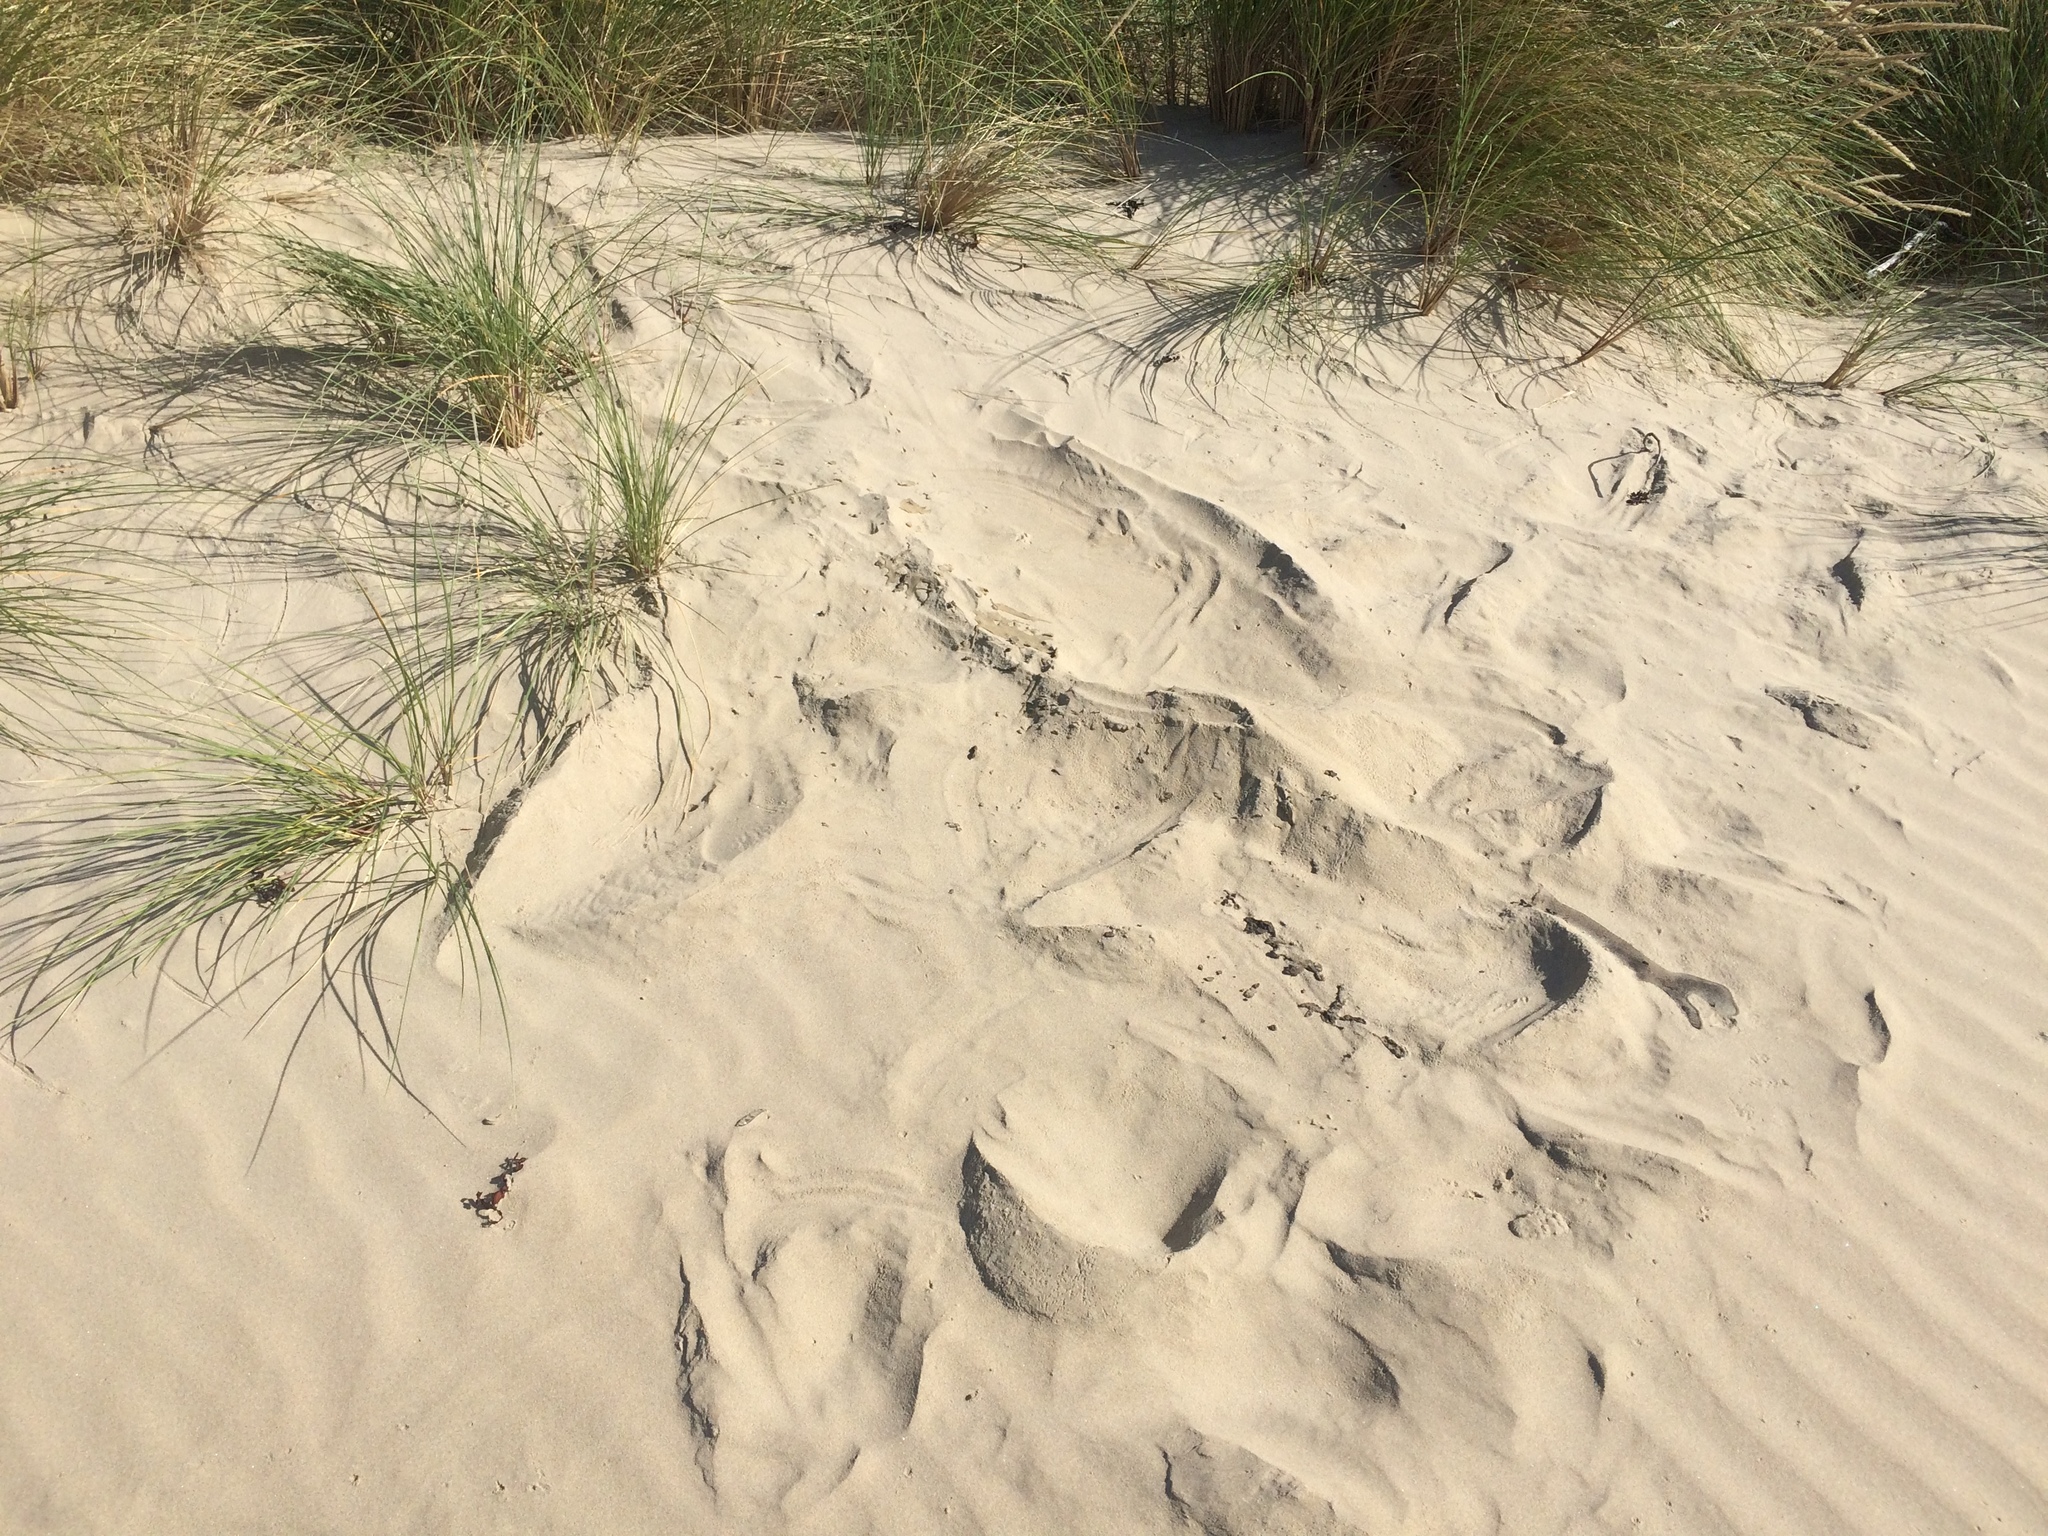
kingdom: Animalia
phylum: Chordata
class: Mammalia
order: Carnivora
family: Otariidae
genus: Phocarctos
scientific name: Phocarctos hookeri
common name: New zealand sea lion
